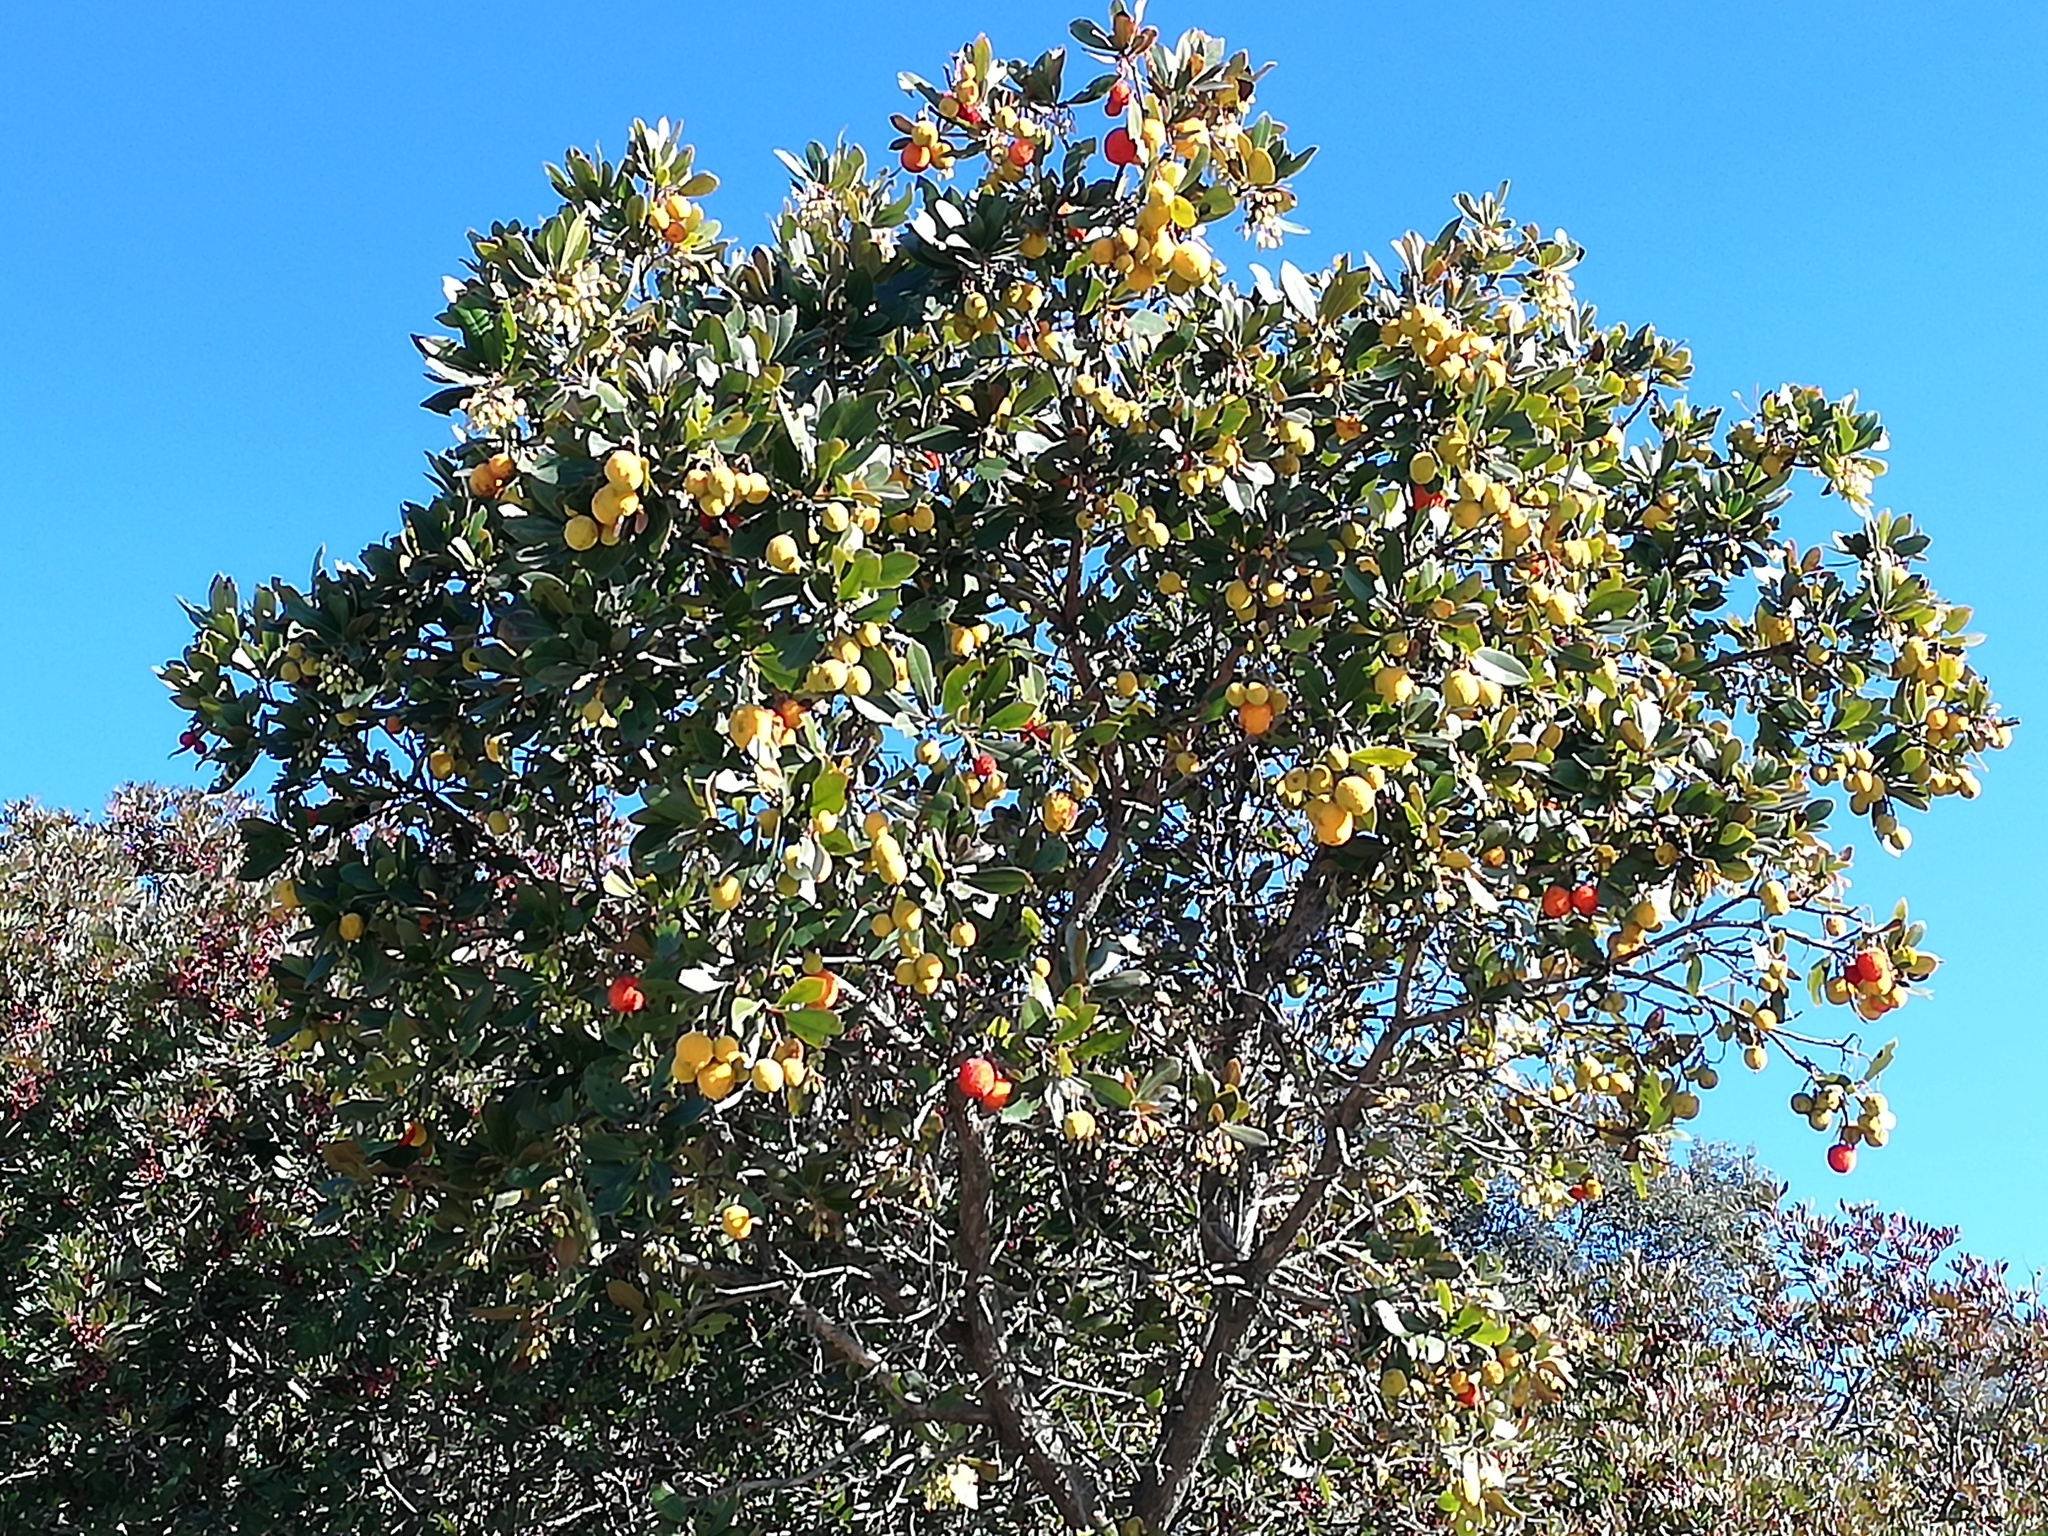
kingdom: Plantae
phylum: Tracheophyta
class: Magnoliopsida
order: Ericales
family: Ericaceae
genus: Arbutus
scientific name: Arbutus unedo
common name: Strawberry-tree
